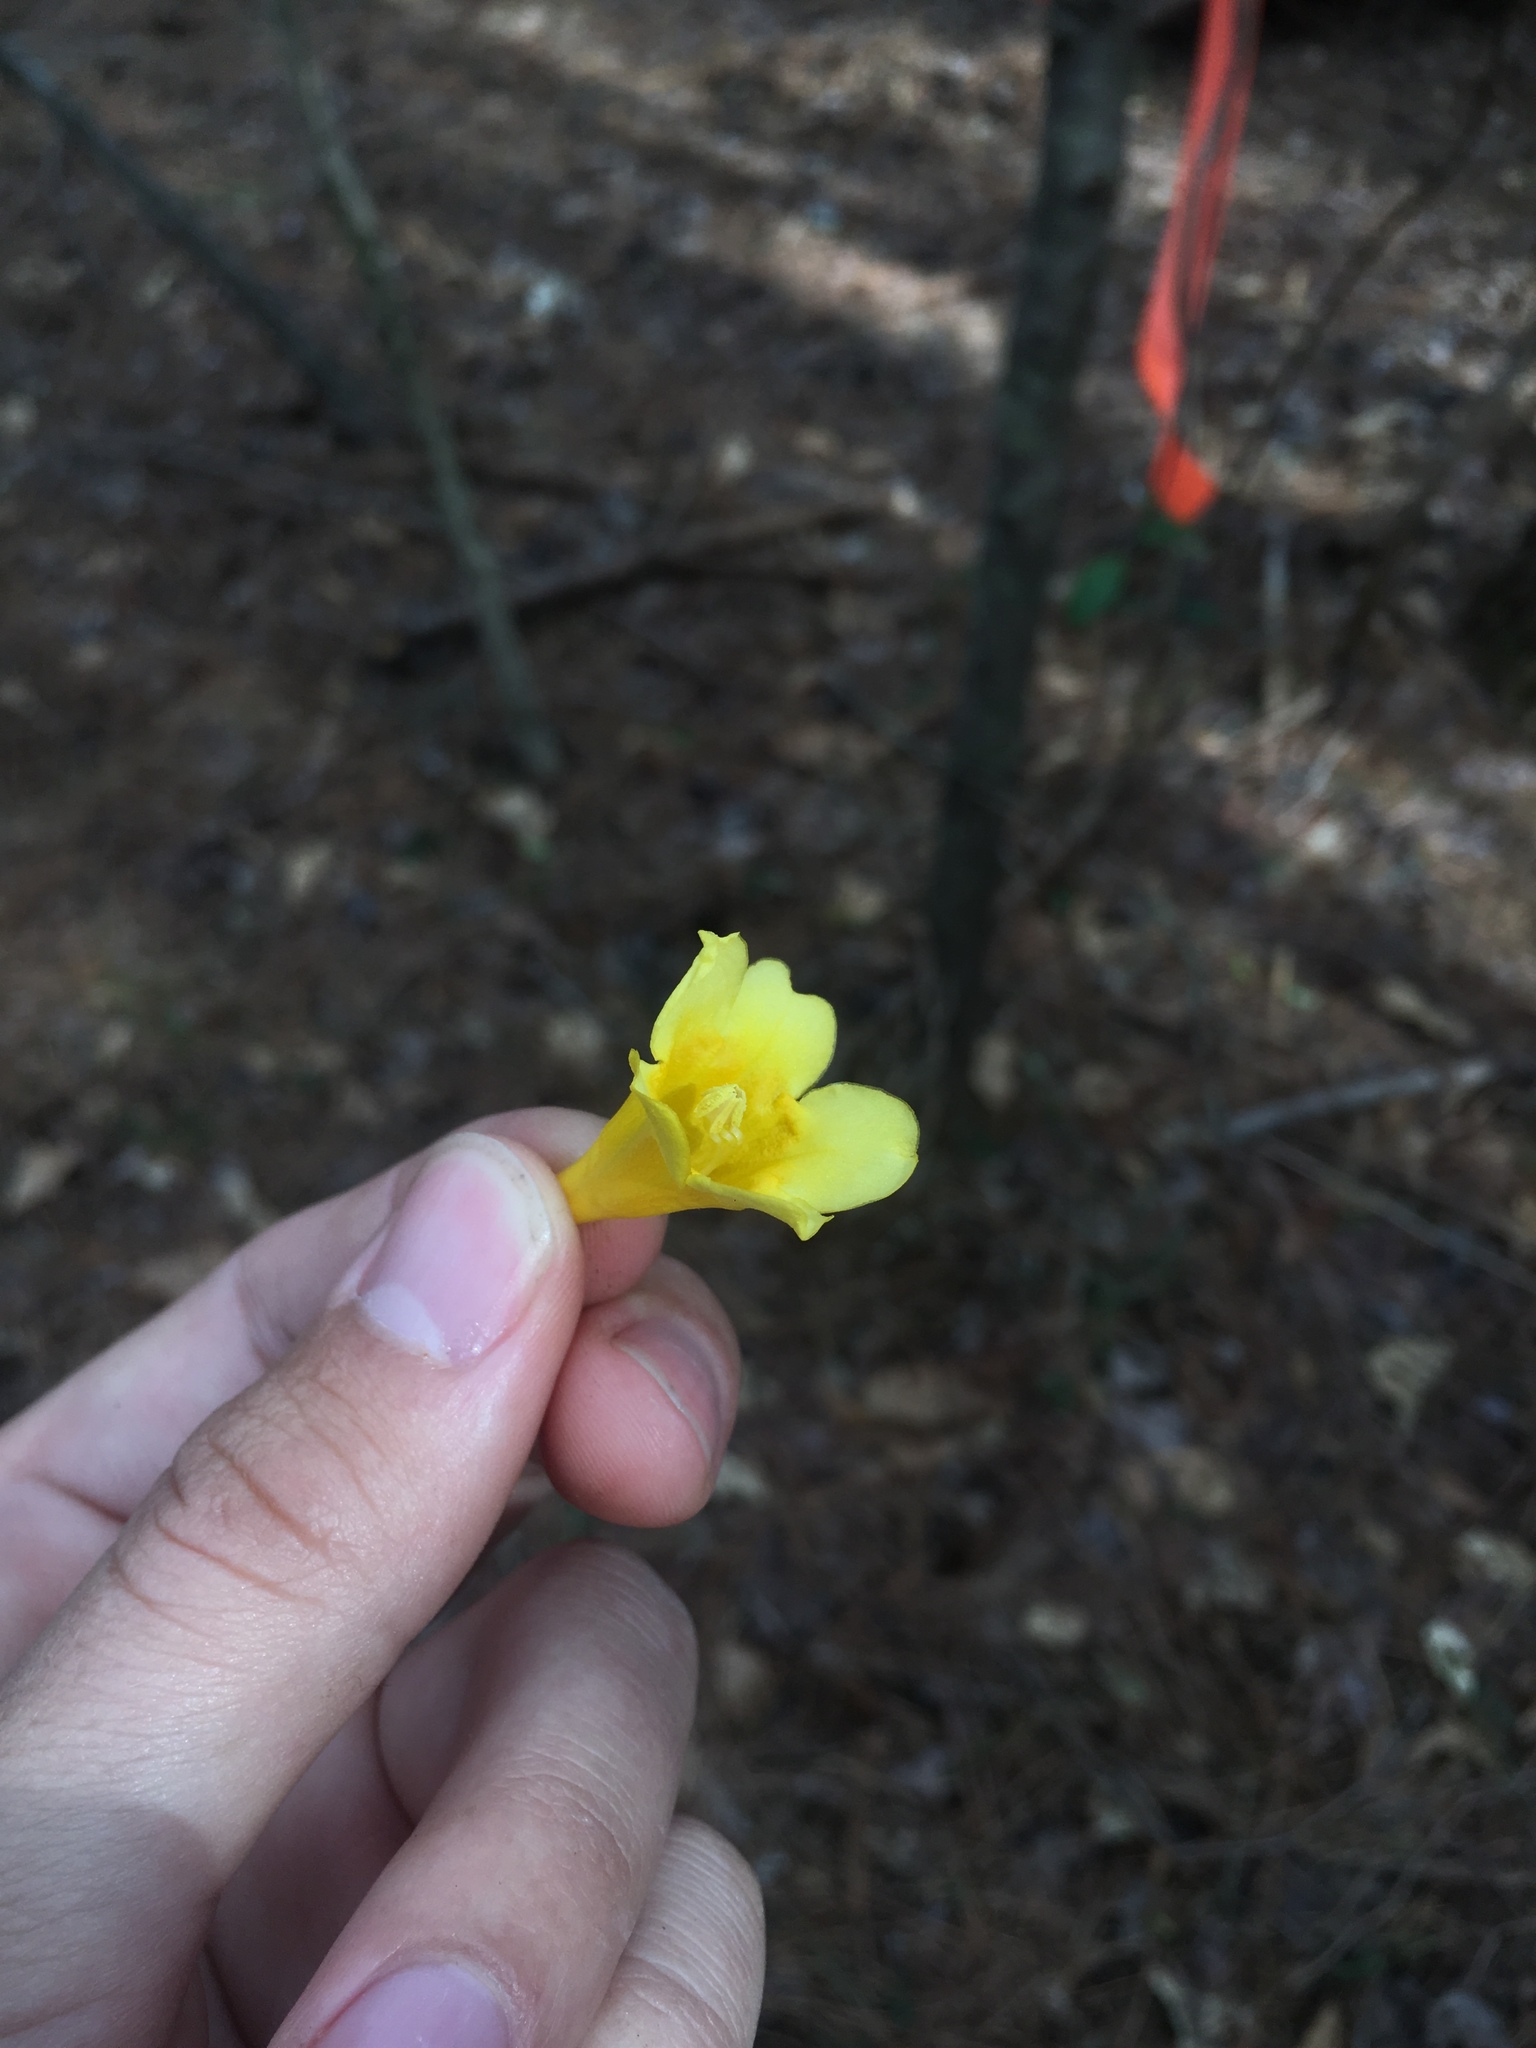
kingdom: Plantae
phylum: Tracheophyta
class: Magnoliopsida
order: Gentianales
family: Gelsemiaceae
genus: Gelsemium
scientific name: Gelsemium sempervirens
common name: Carolina-jasmine
